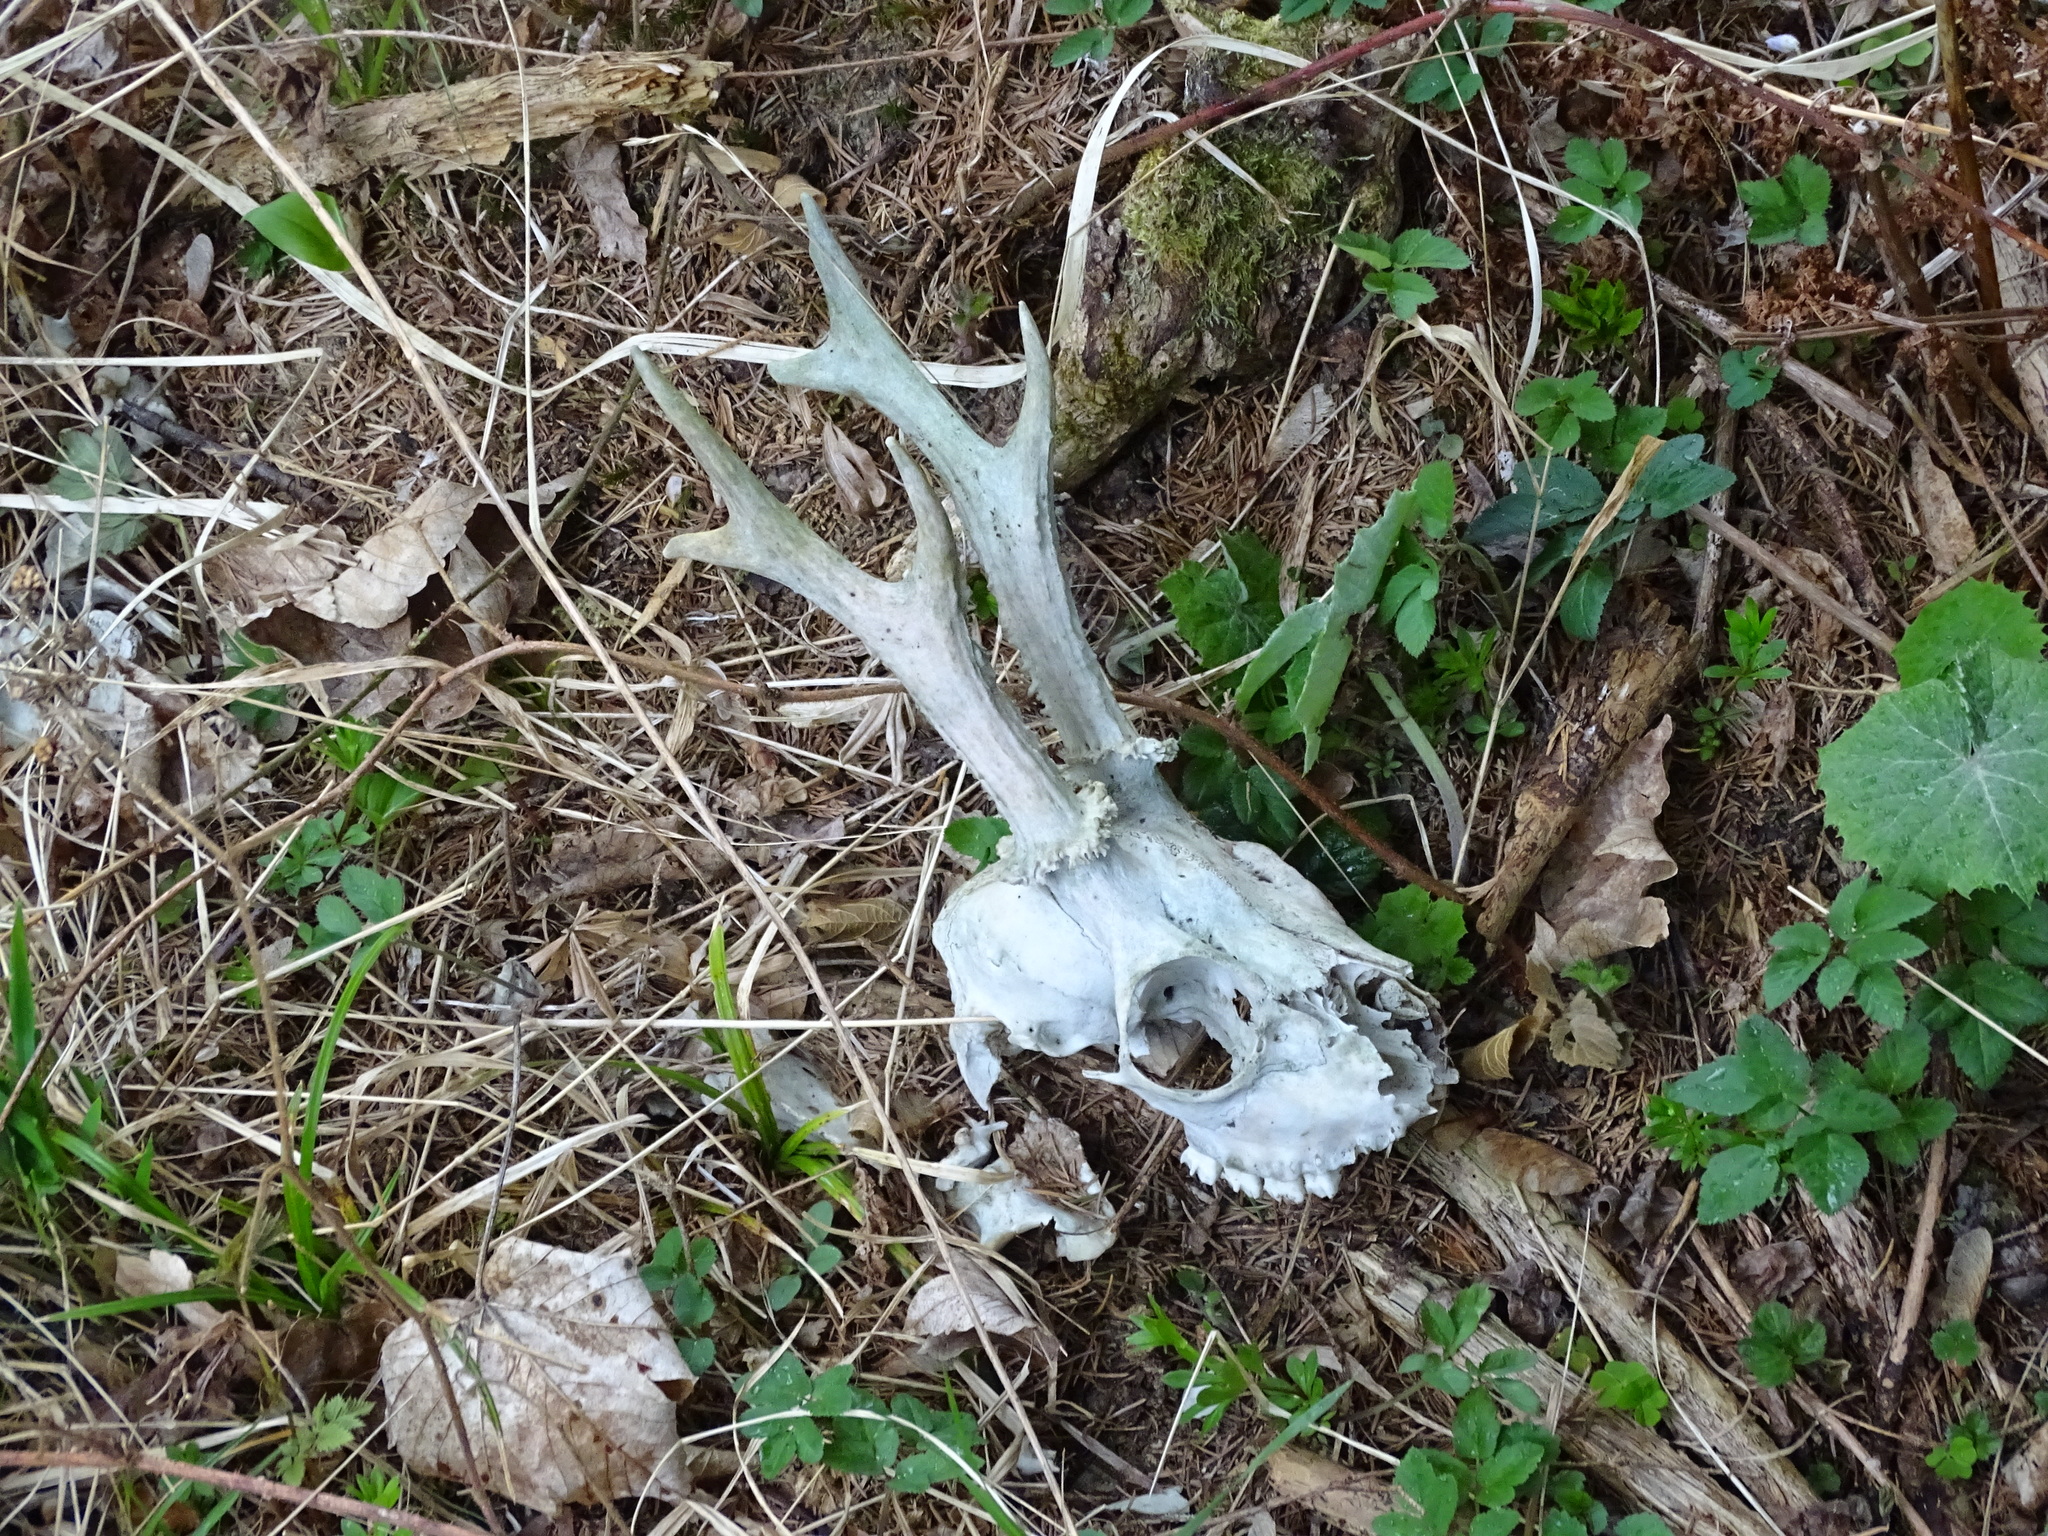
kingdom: Animalia
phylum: Chordata
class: Mammalia
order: Artiodactyla
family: Cervidae
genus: Capreolus
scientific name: Capreolus capreolus
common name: Western roe deer
